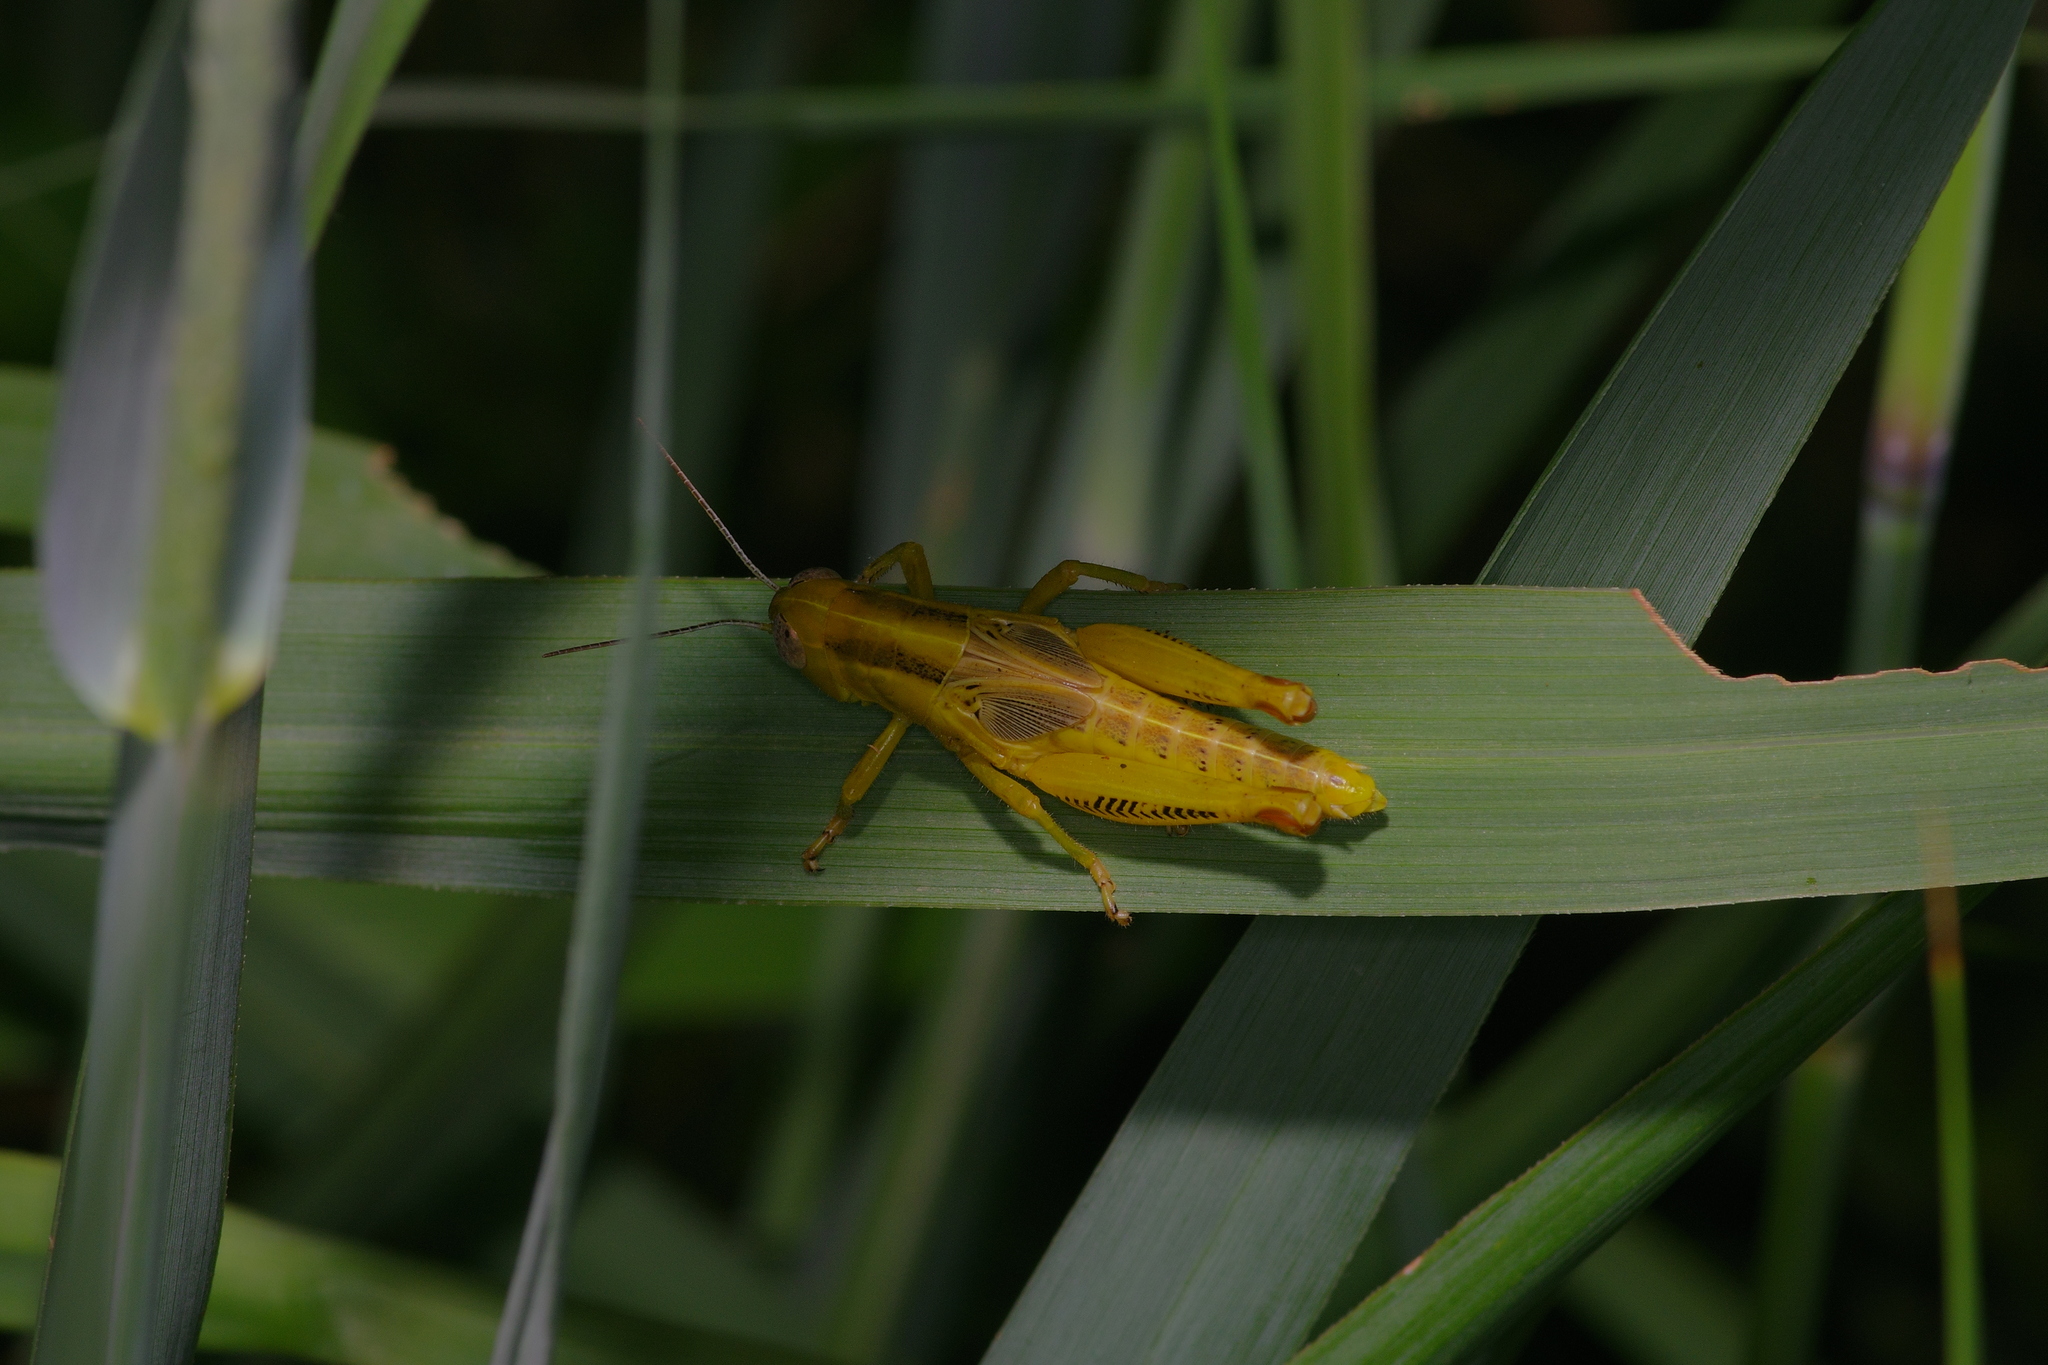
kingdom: Animalia
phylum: Arthropoda
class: Insecta
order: Orthoptera
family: Acrididae
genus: Melanoplus
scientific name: Melanoplus differentialis
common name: Differential grasshopper
